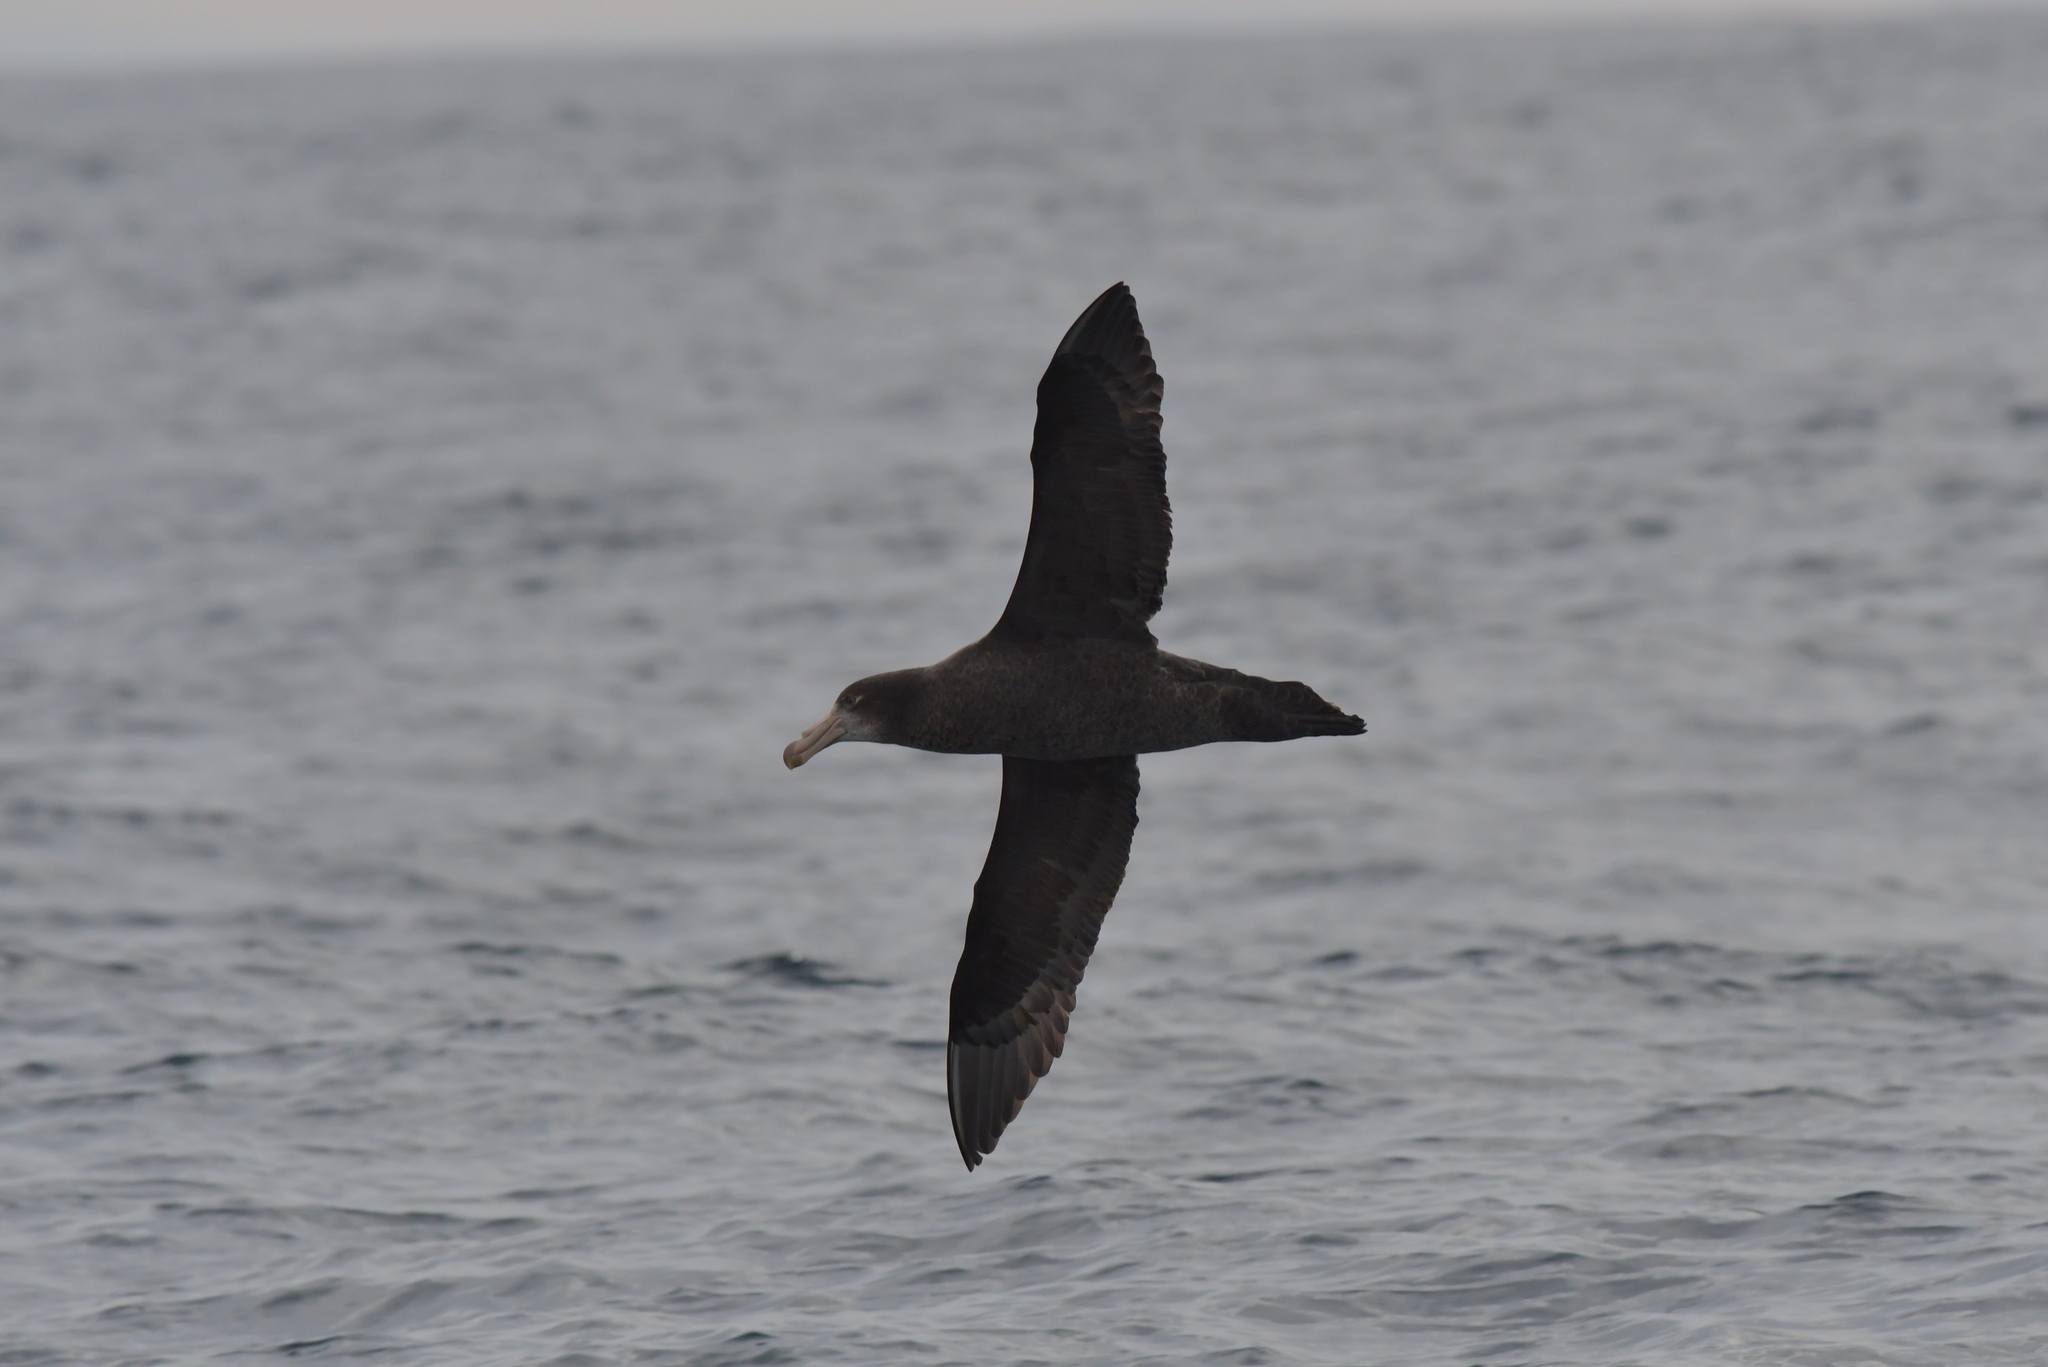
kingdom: Animalia
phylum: Chordata
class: Aves
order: Procellariiformes
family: Procellariidae
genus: Macronectes
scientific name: Macronectes halli
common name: Northern giant petrel
